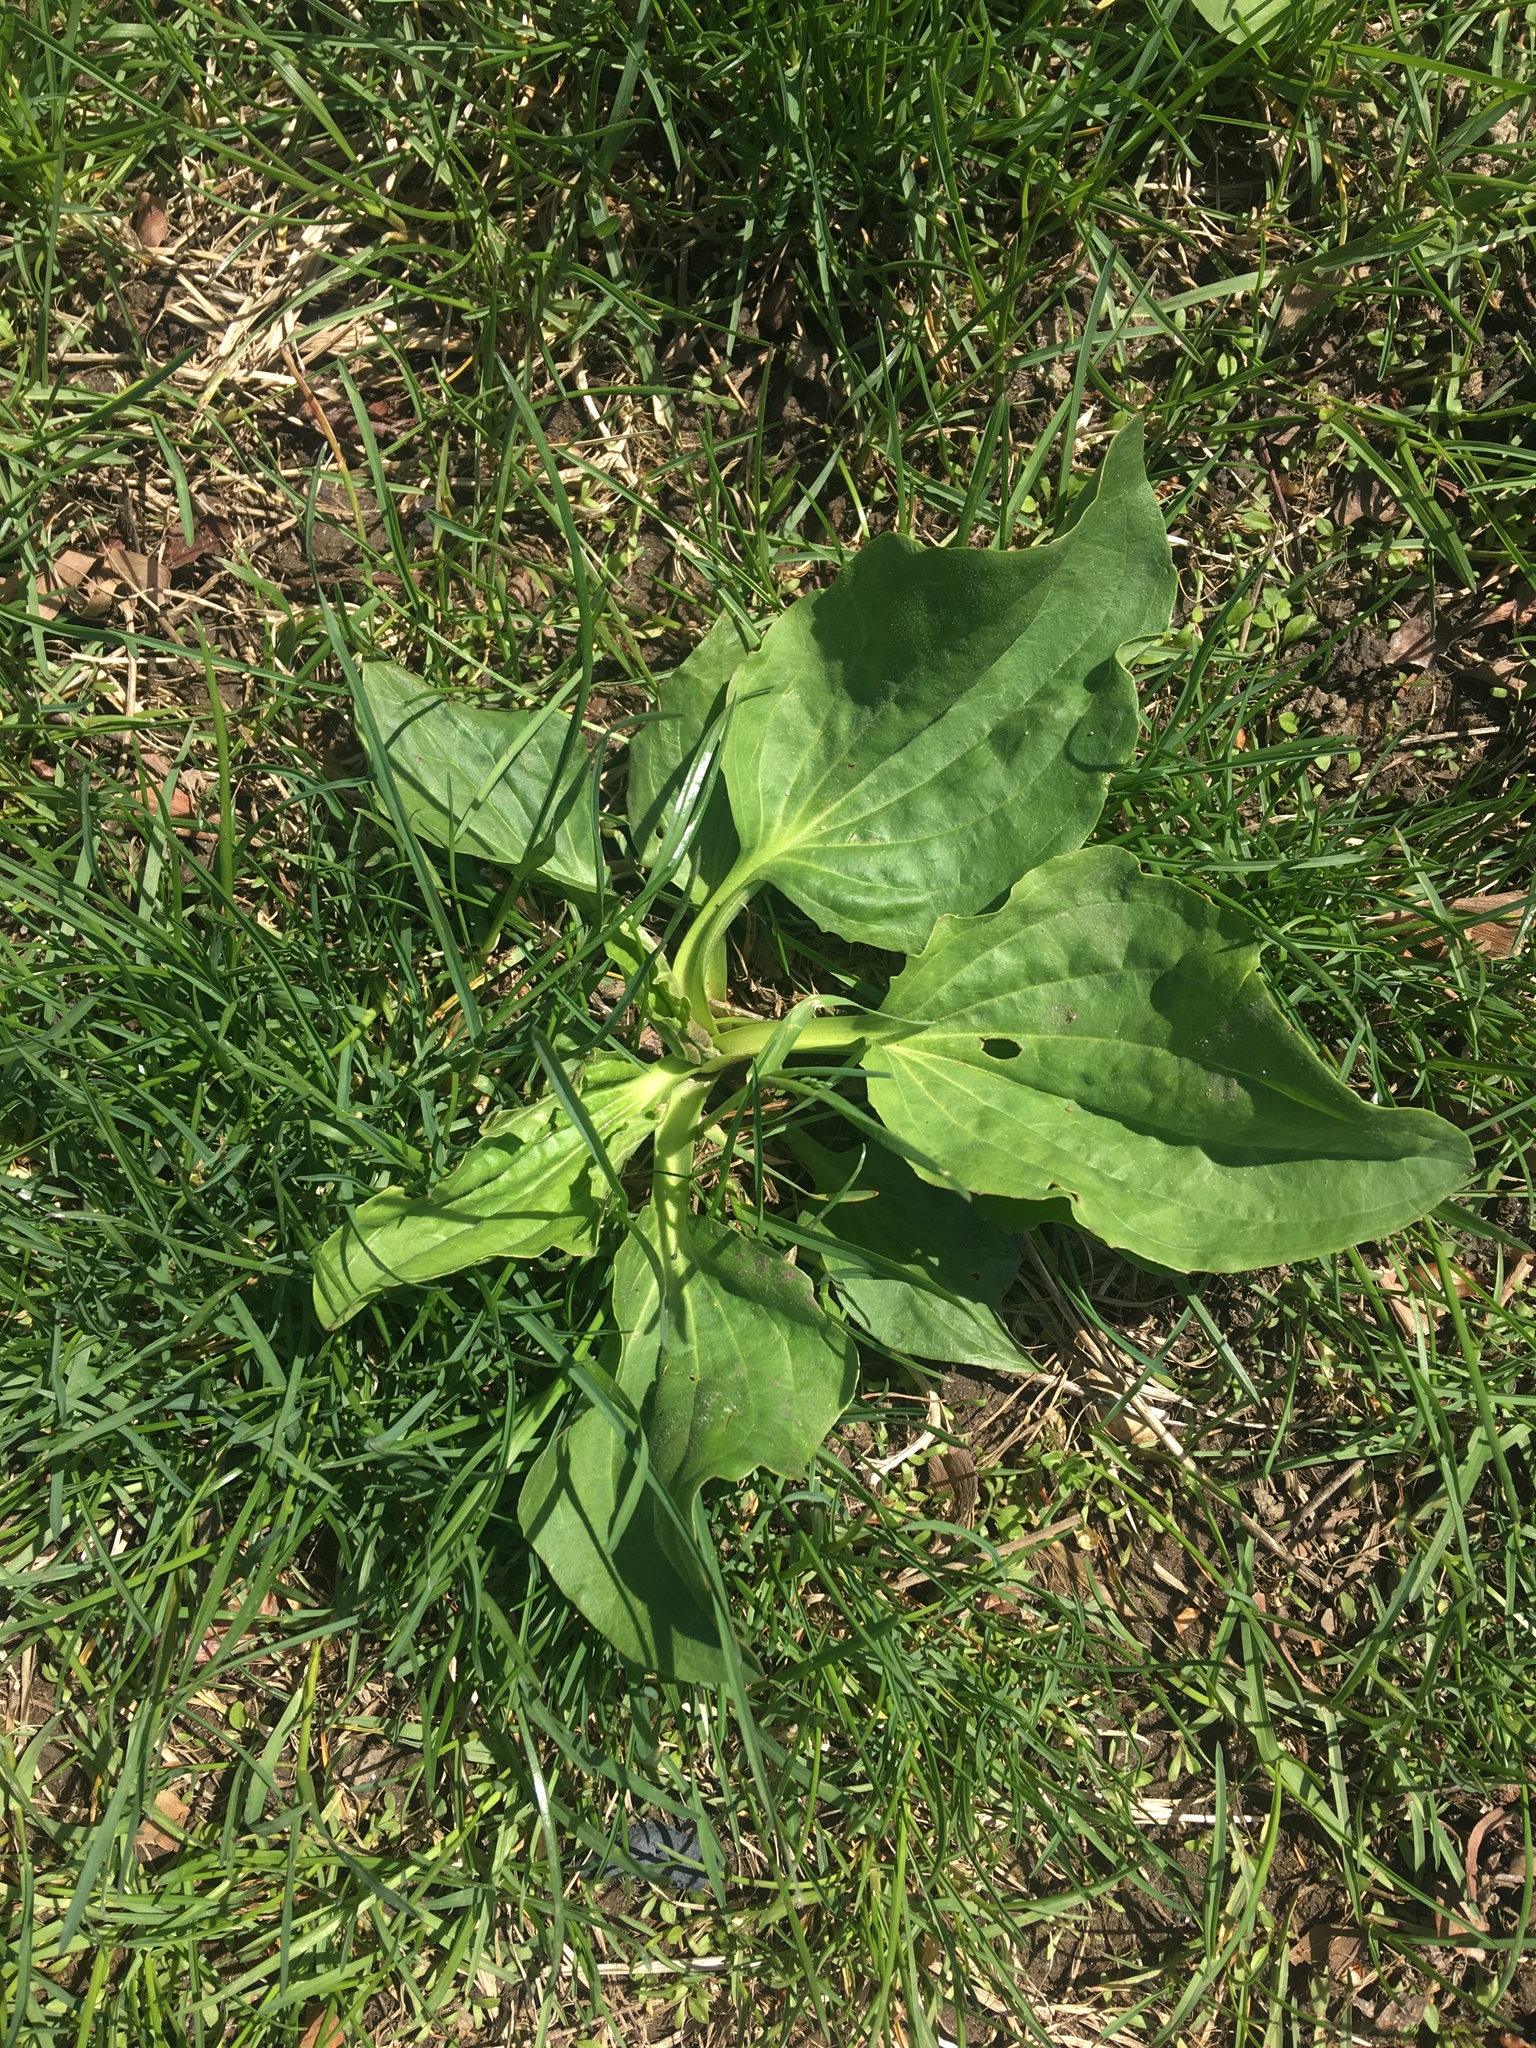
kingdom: Plantae
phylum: Tracheophyta
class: Magnoliopsida
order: Lamiales
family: Plantaginaceae
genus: Plantago
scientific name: Plantago major
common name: Common plantain
